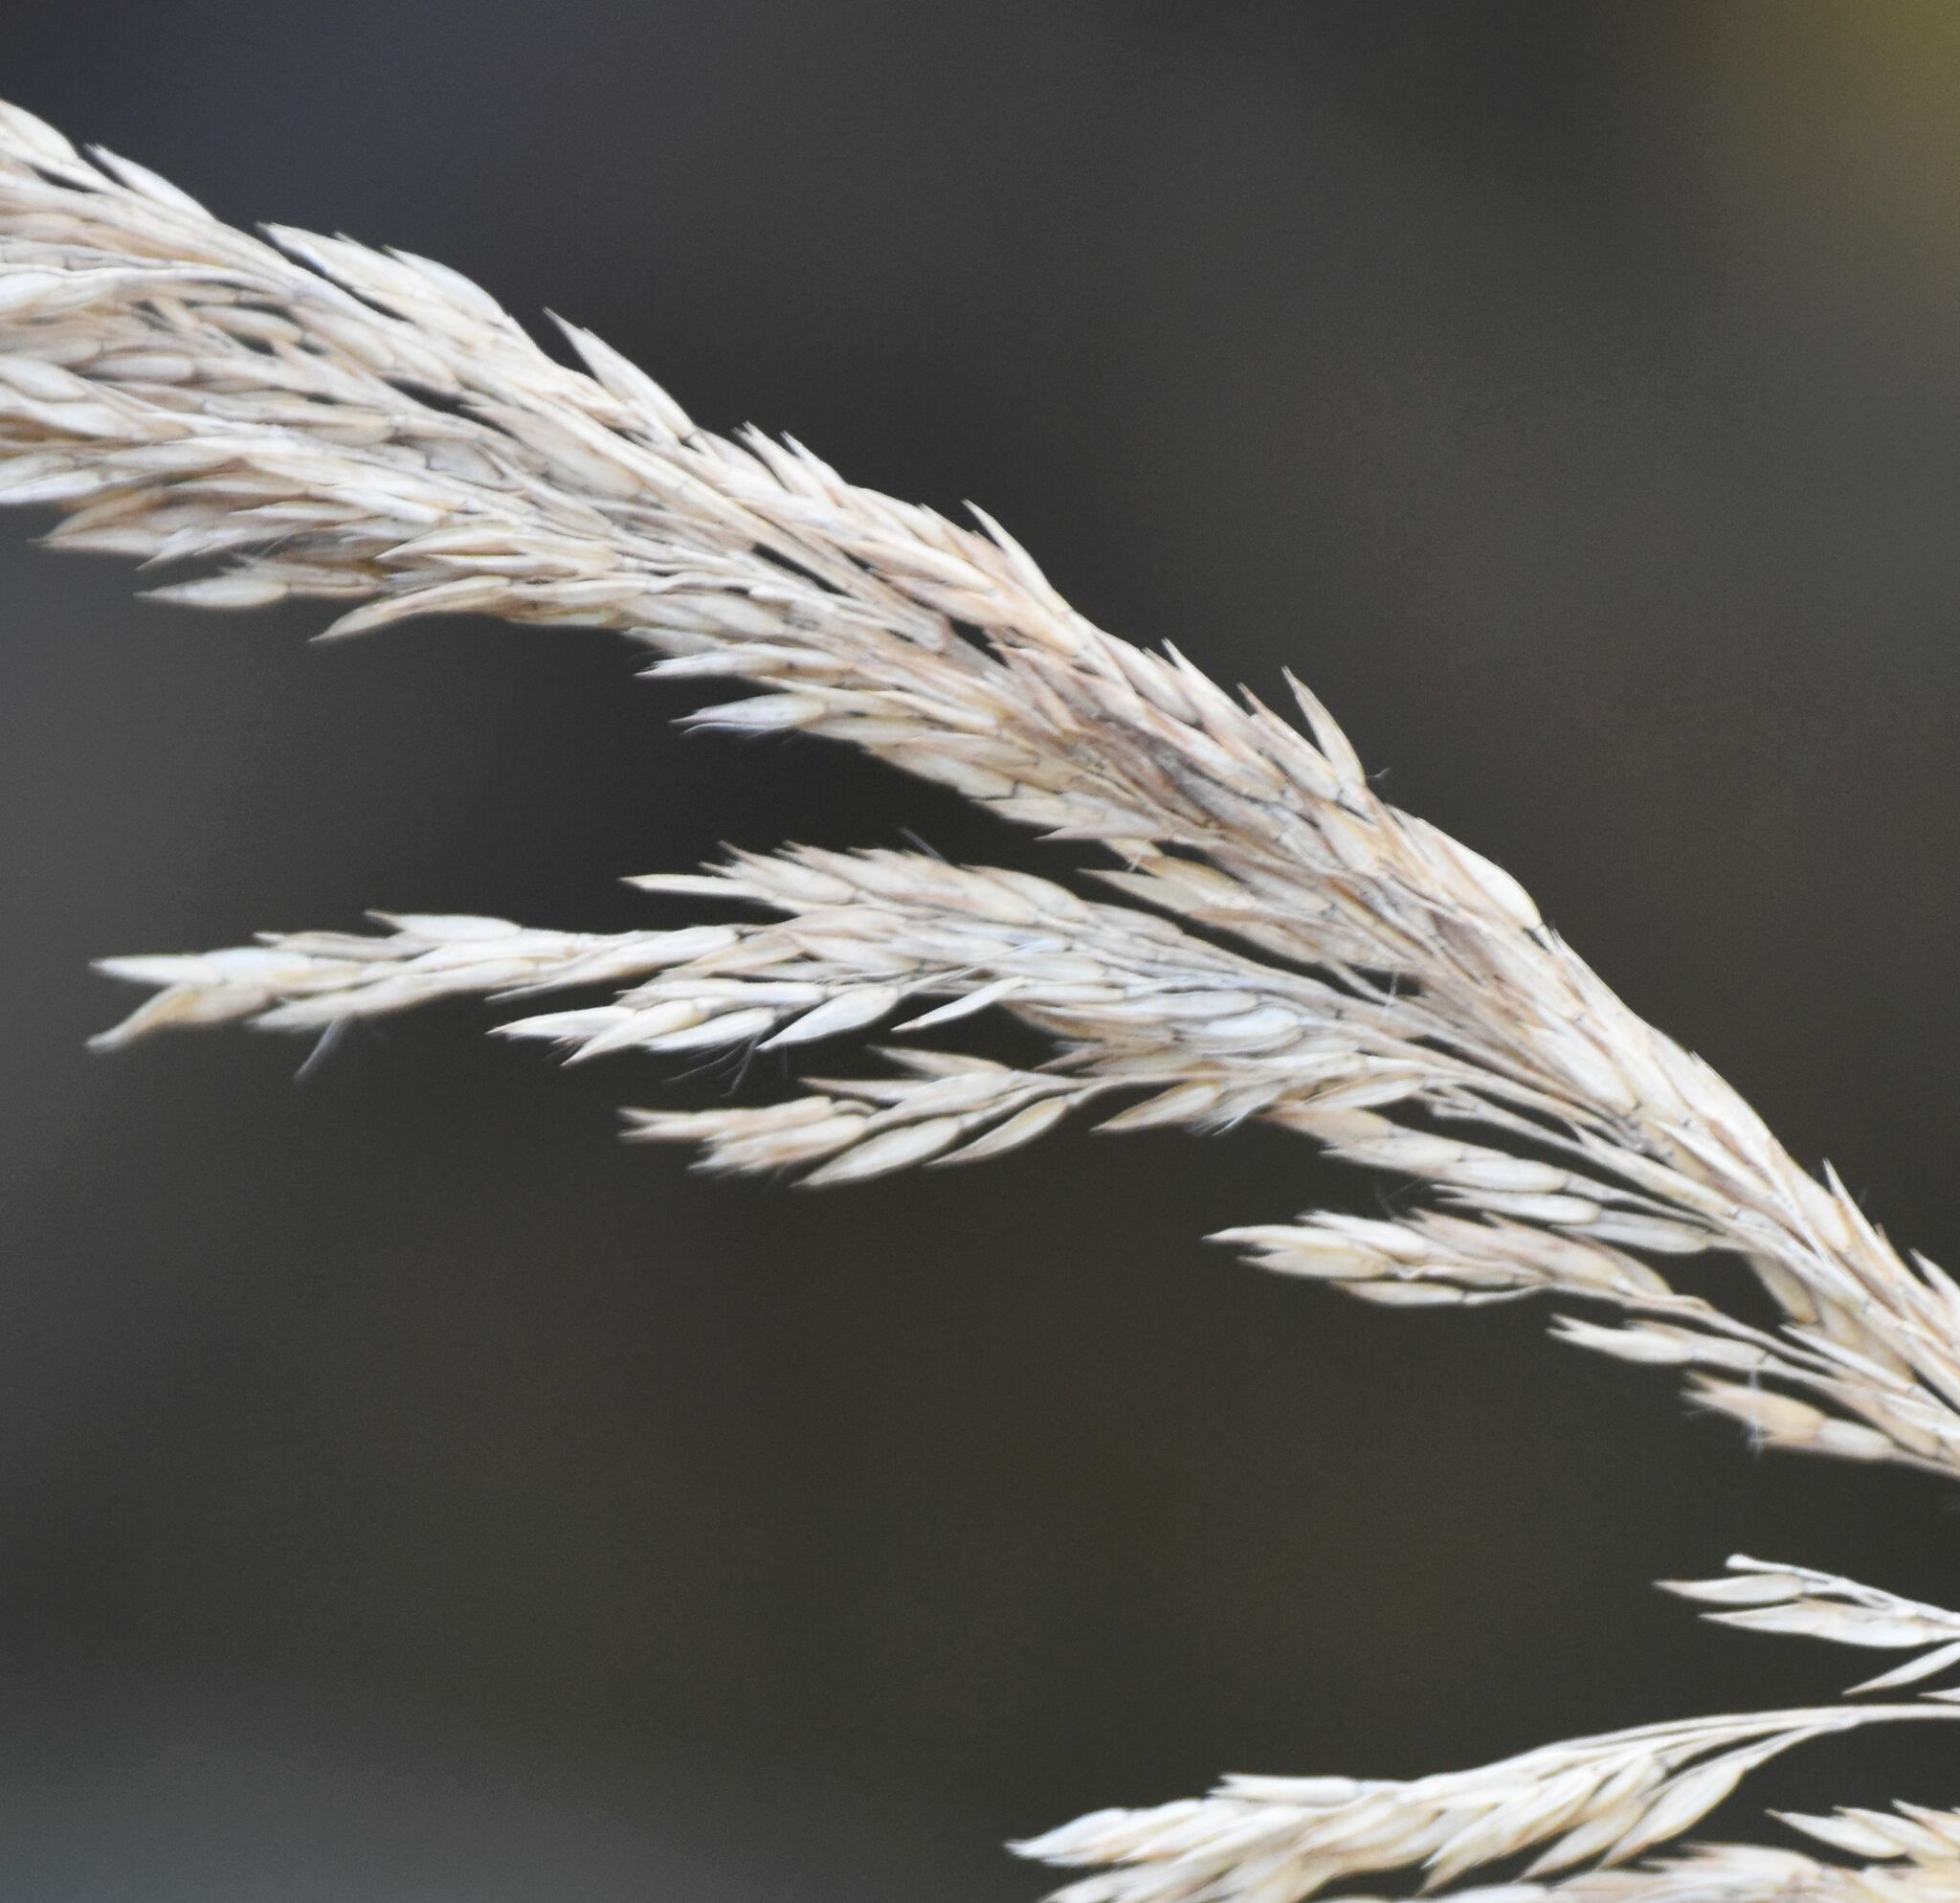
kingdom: Plantae
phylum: Tracheophyta
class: Liliopsida
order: Poales
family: Poaceae
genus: Calamagrostis
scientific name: Calamagrostis canadensis
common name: Canada bluejoint
